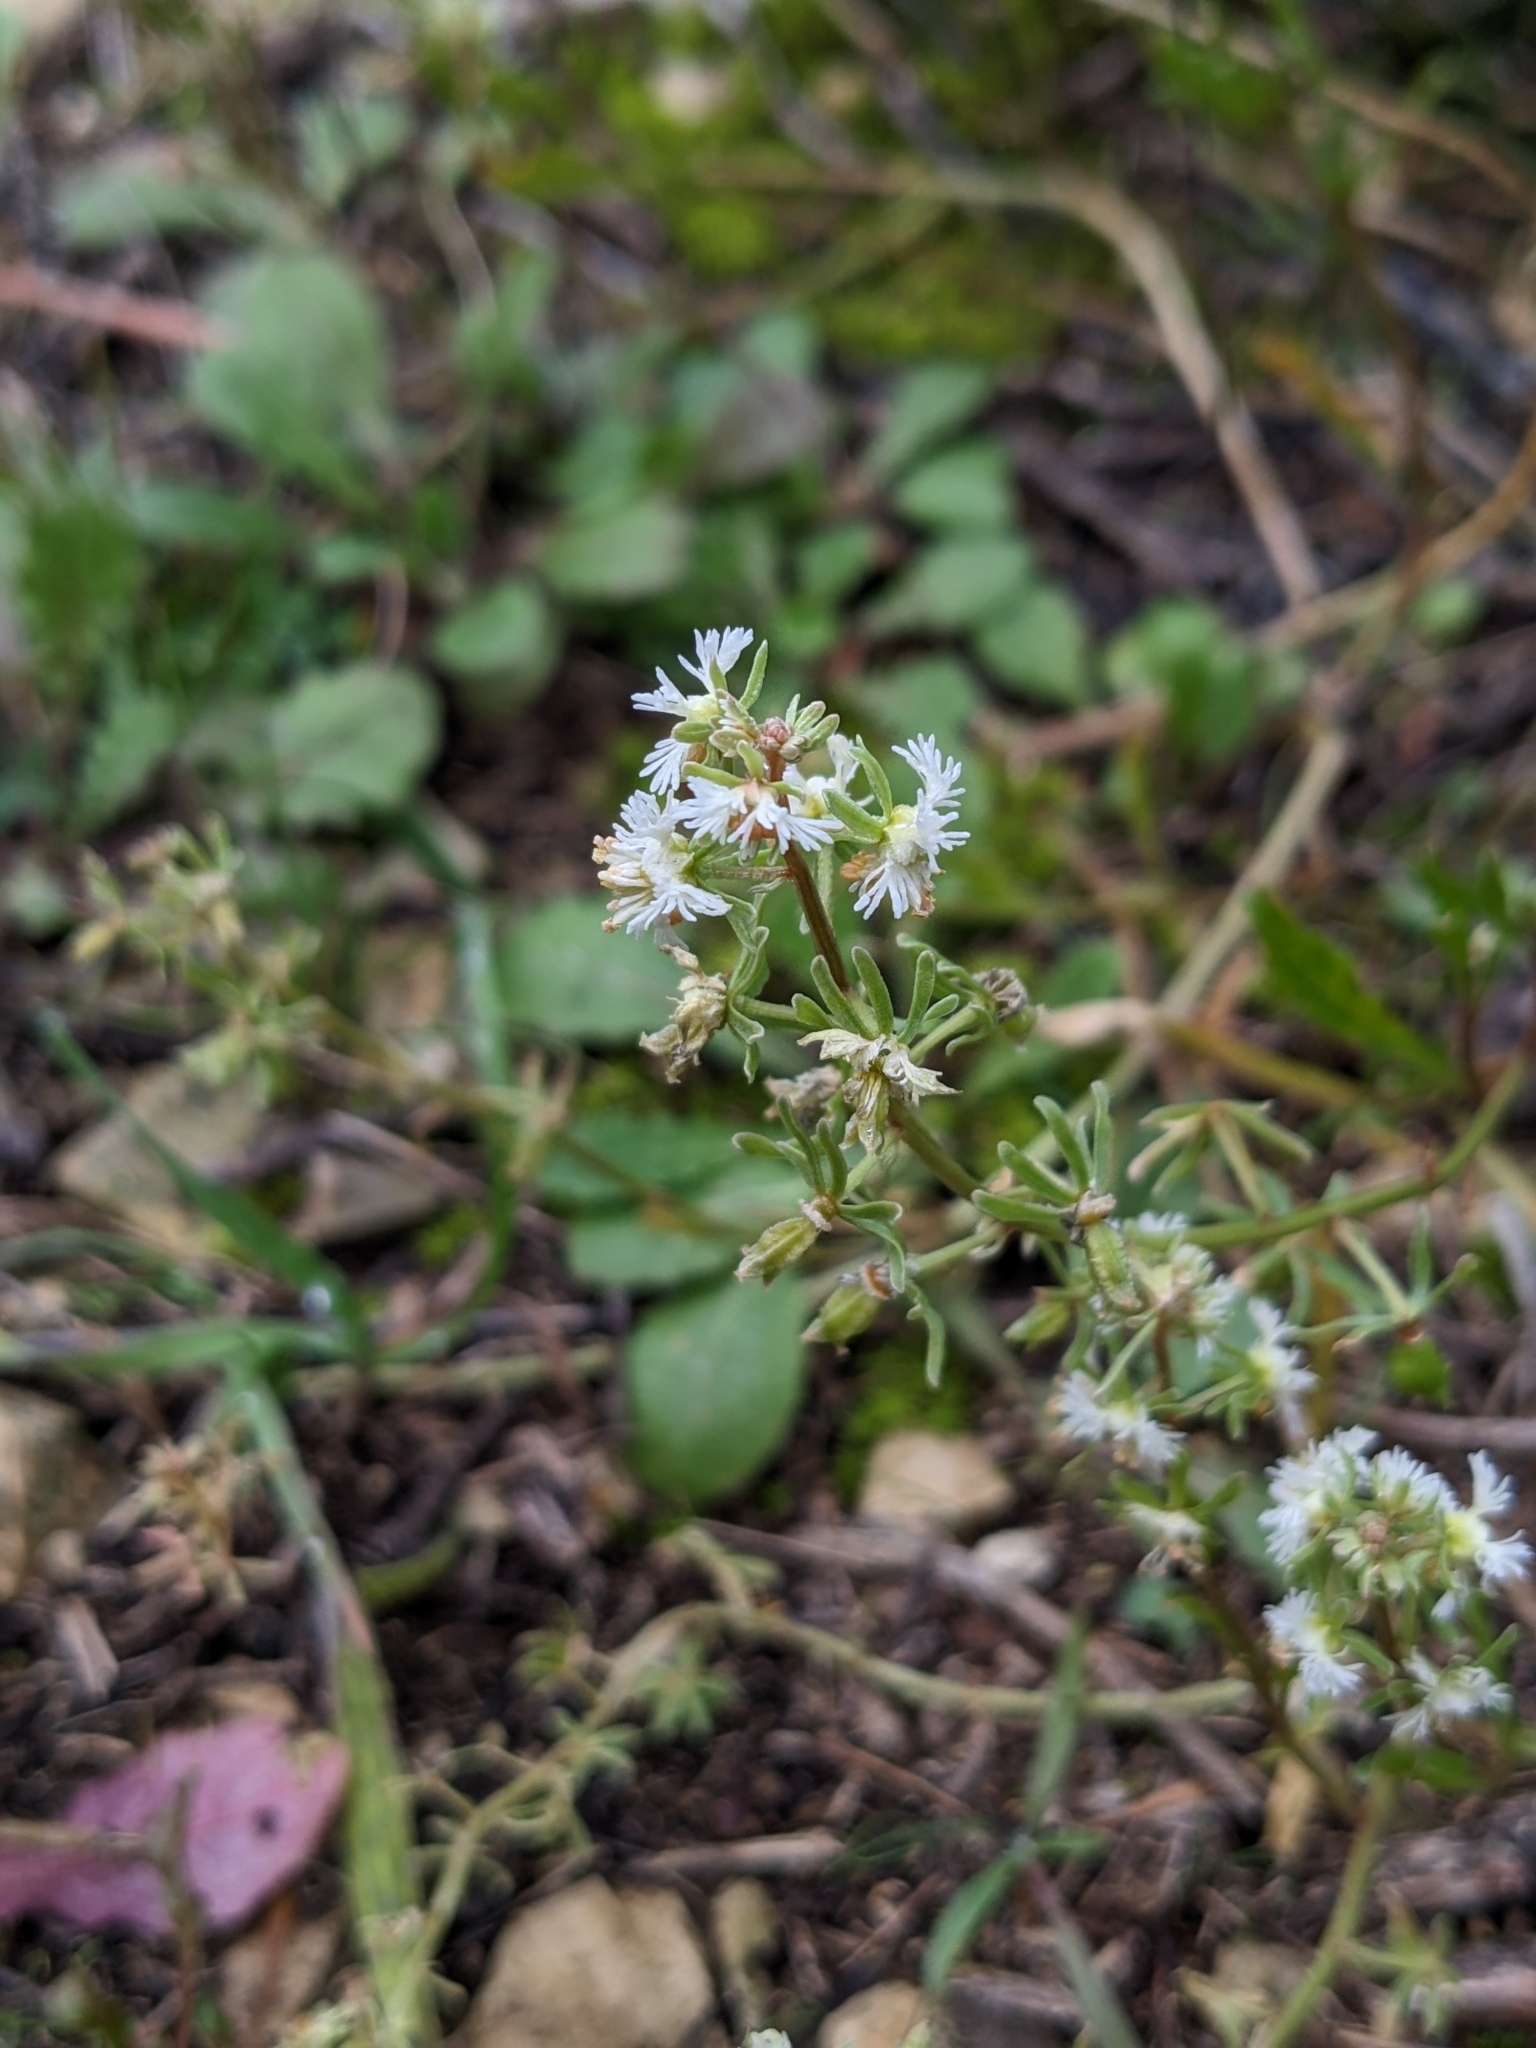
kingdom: Plantae
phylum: Tracheophyta
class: Magnoliopsida
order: Brassicales
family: Resedaceae
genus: Reseda
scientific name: Reseda phyteuma
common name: Corn mignonette
